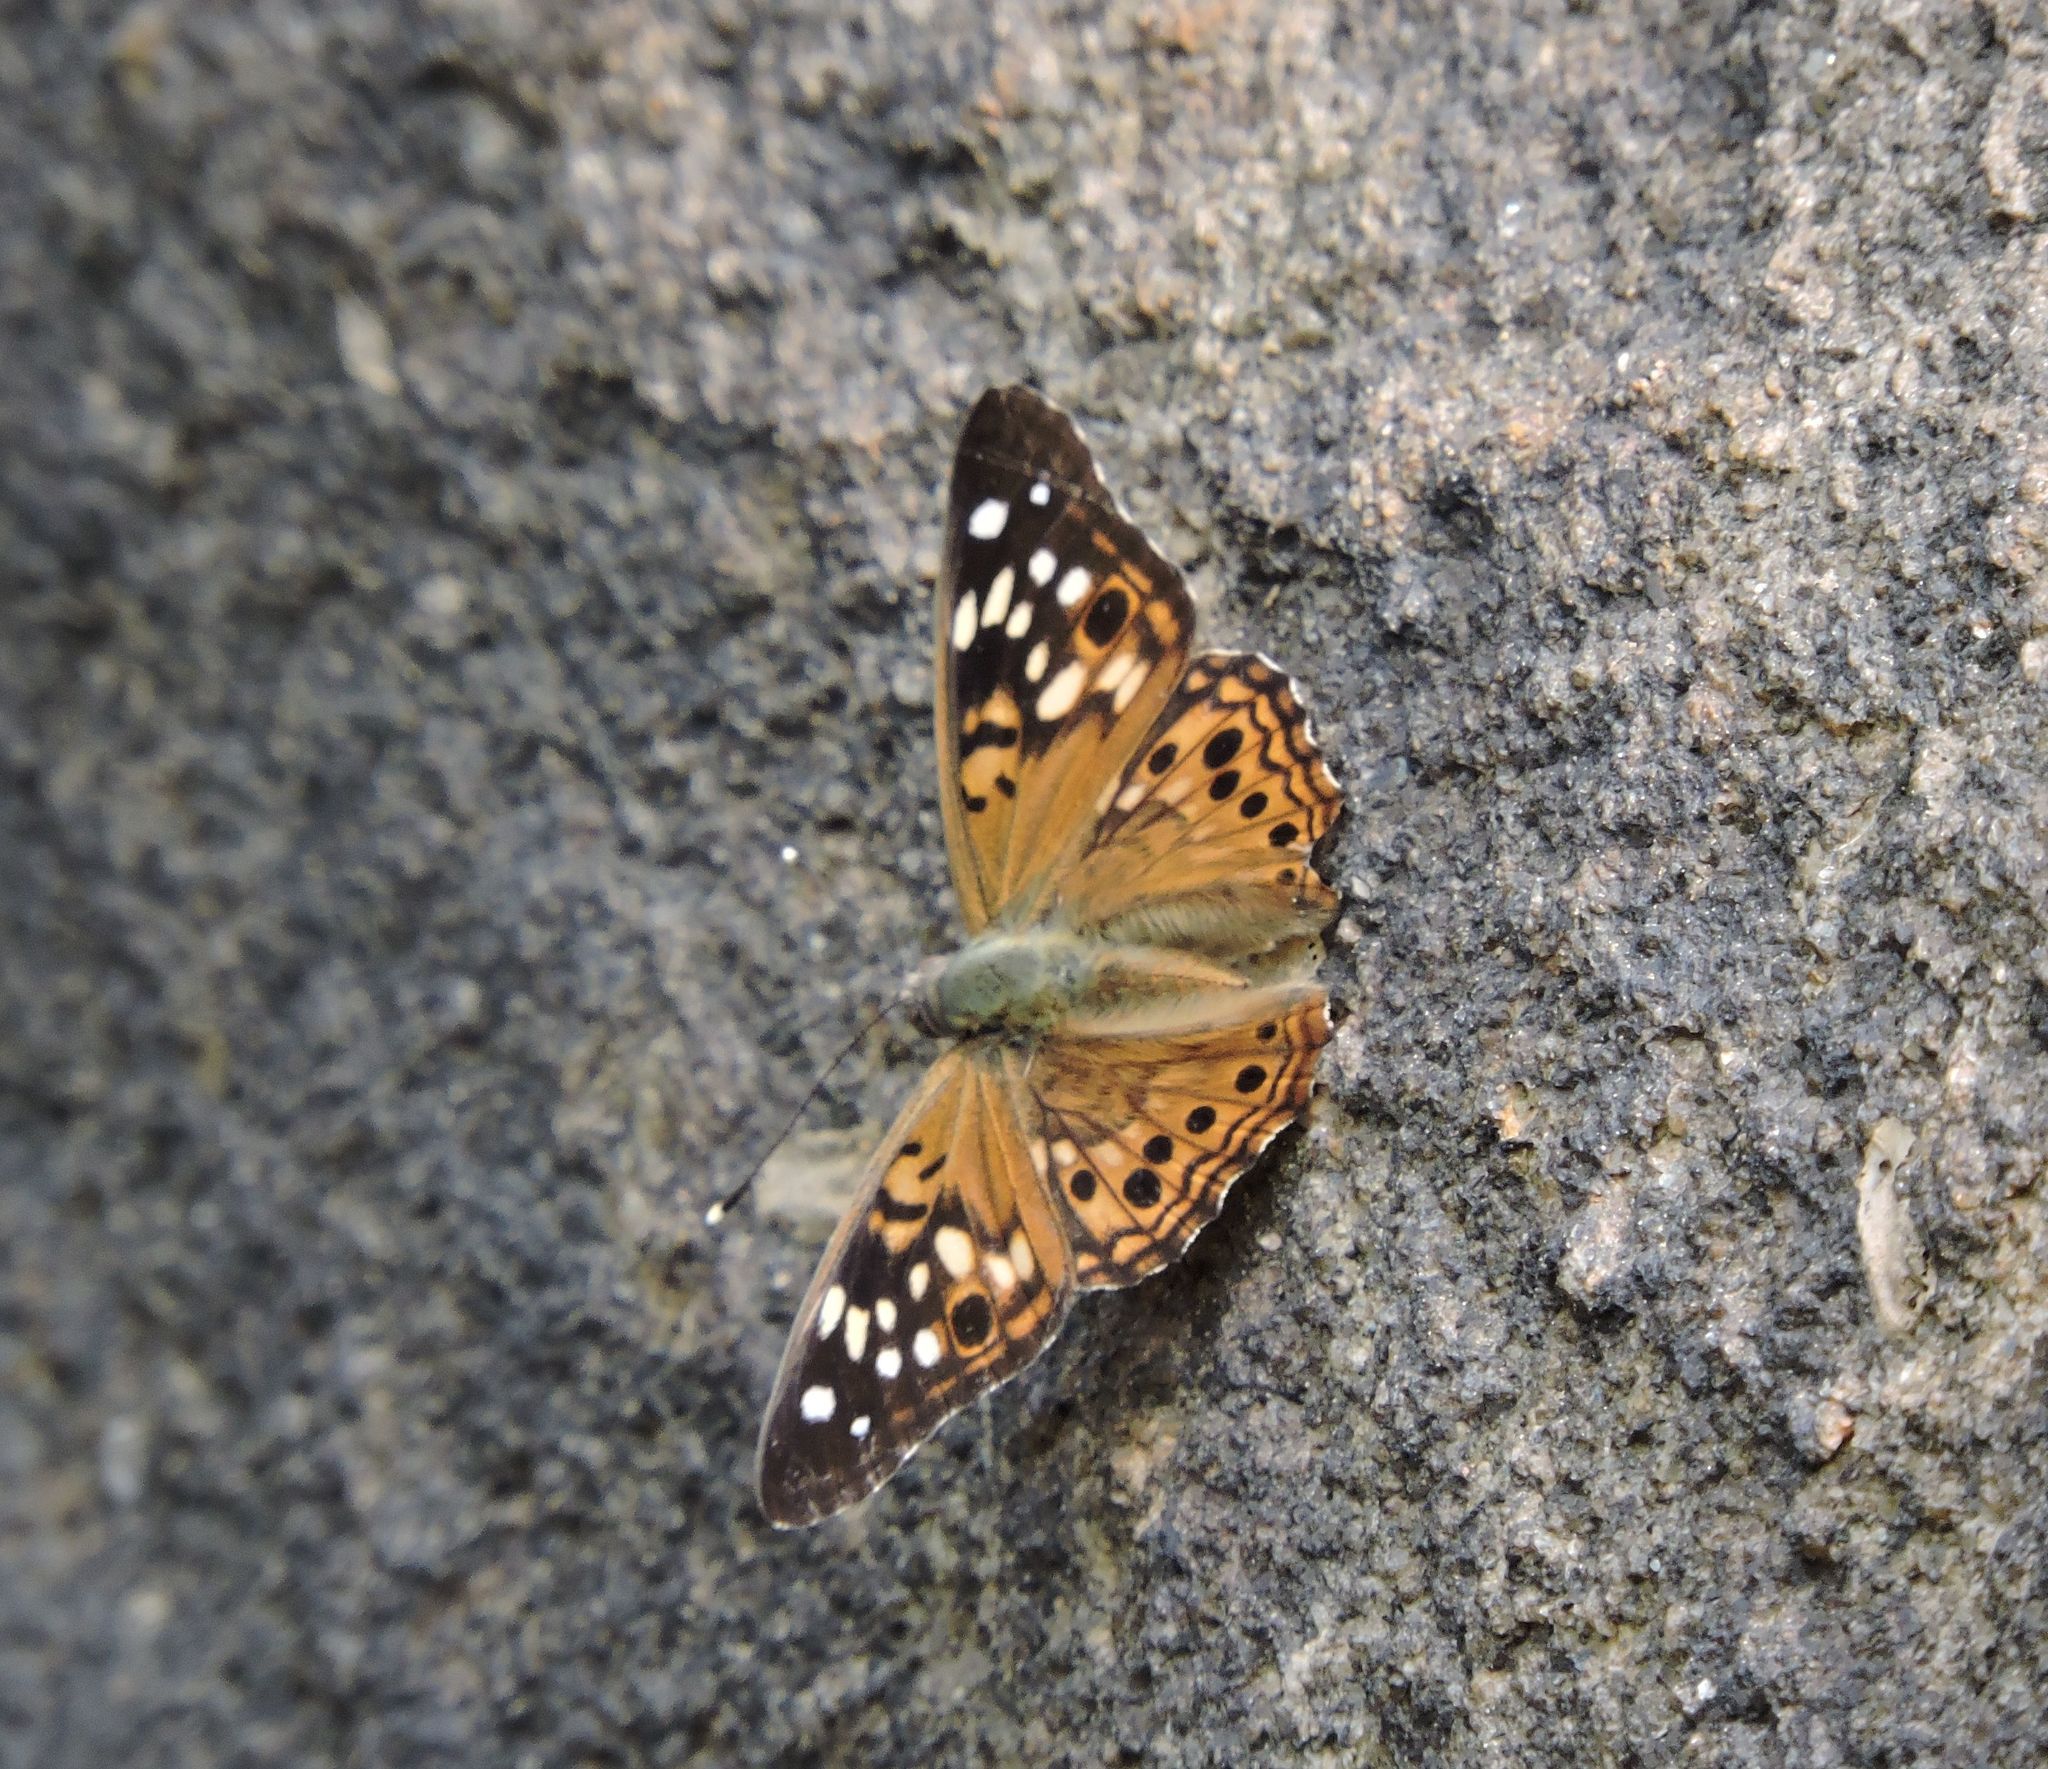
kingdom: Animalia
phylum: Arthropoda
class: Insecta
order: Lepidoptera
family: Nymphalidae
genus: Asterocampa
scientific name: Asterocampa celtis
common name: Hackberry emperor
